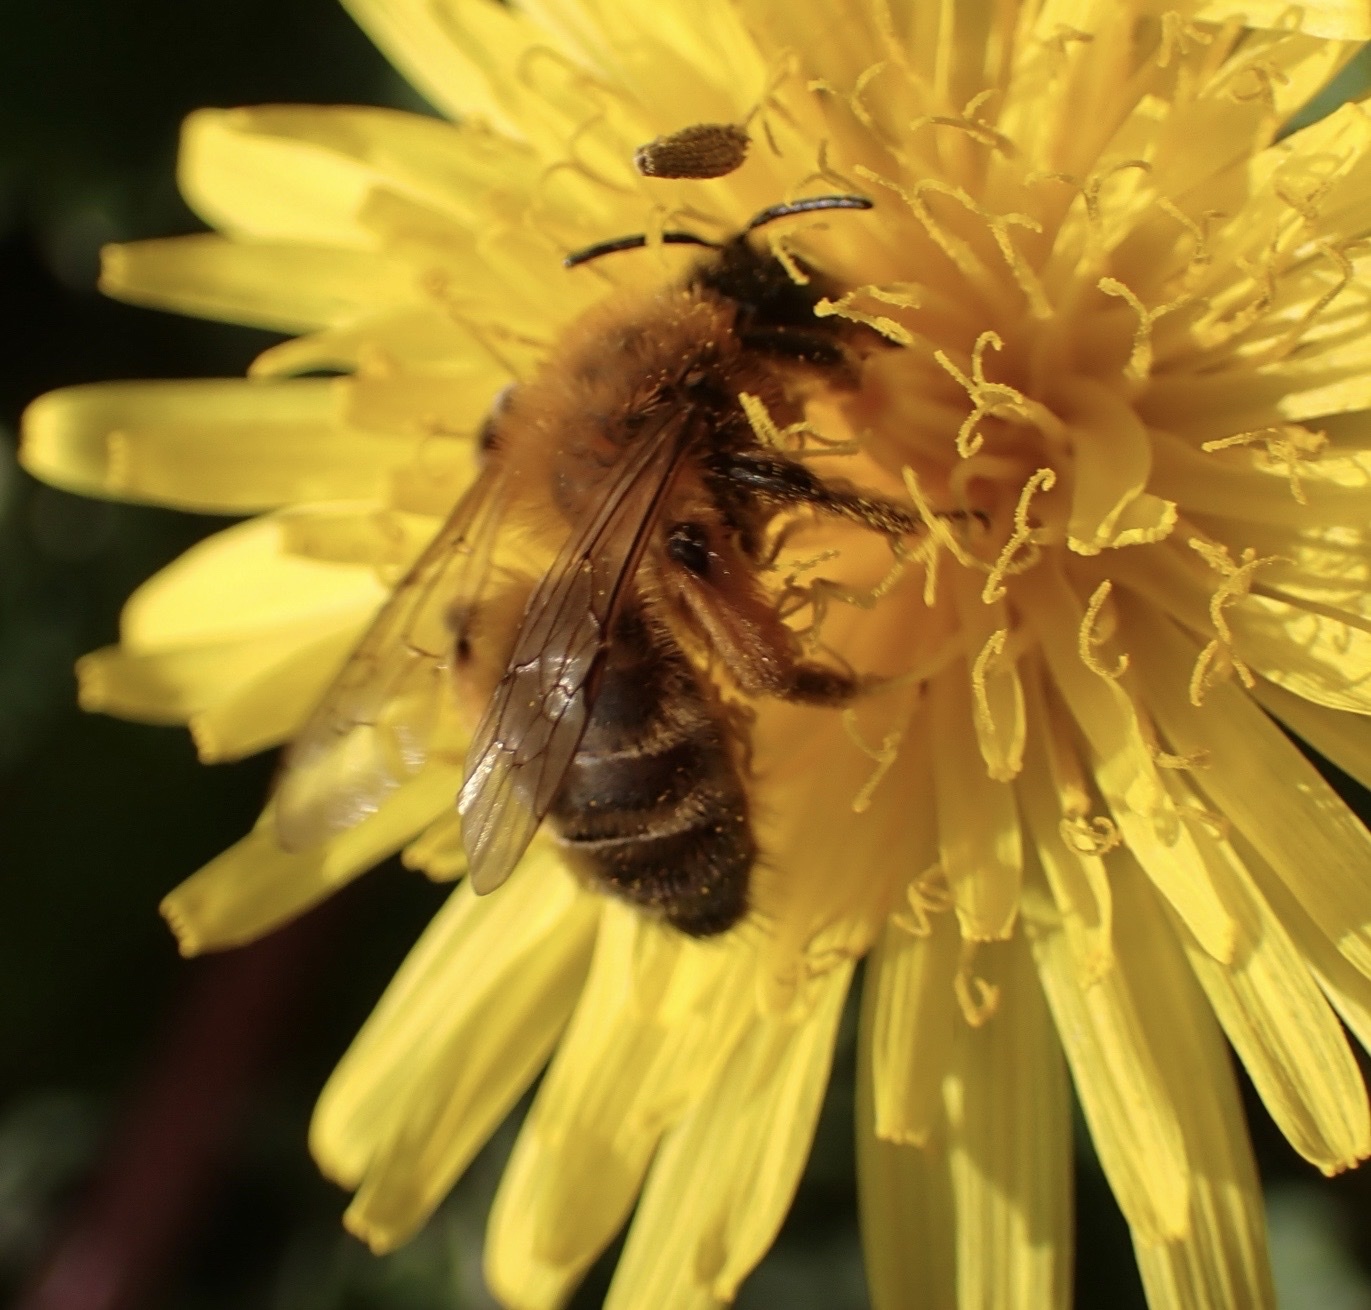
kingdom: Animalia
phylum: Arthropoda
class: Insecta
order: Hymenoptera
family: Andrenidae
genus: Andrena
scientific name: Andrena nigroaenea
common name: Buffish mining bee
